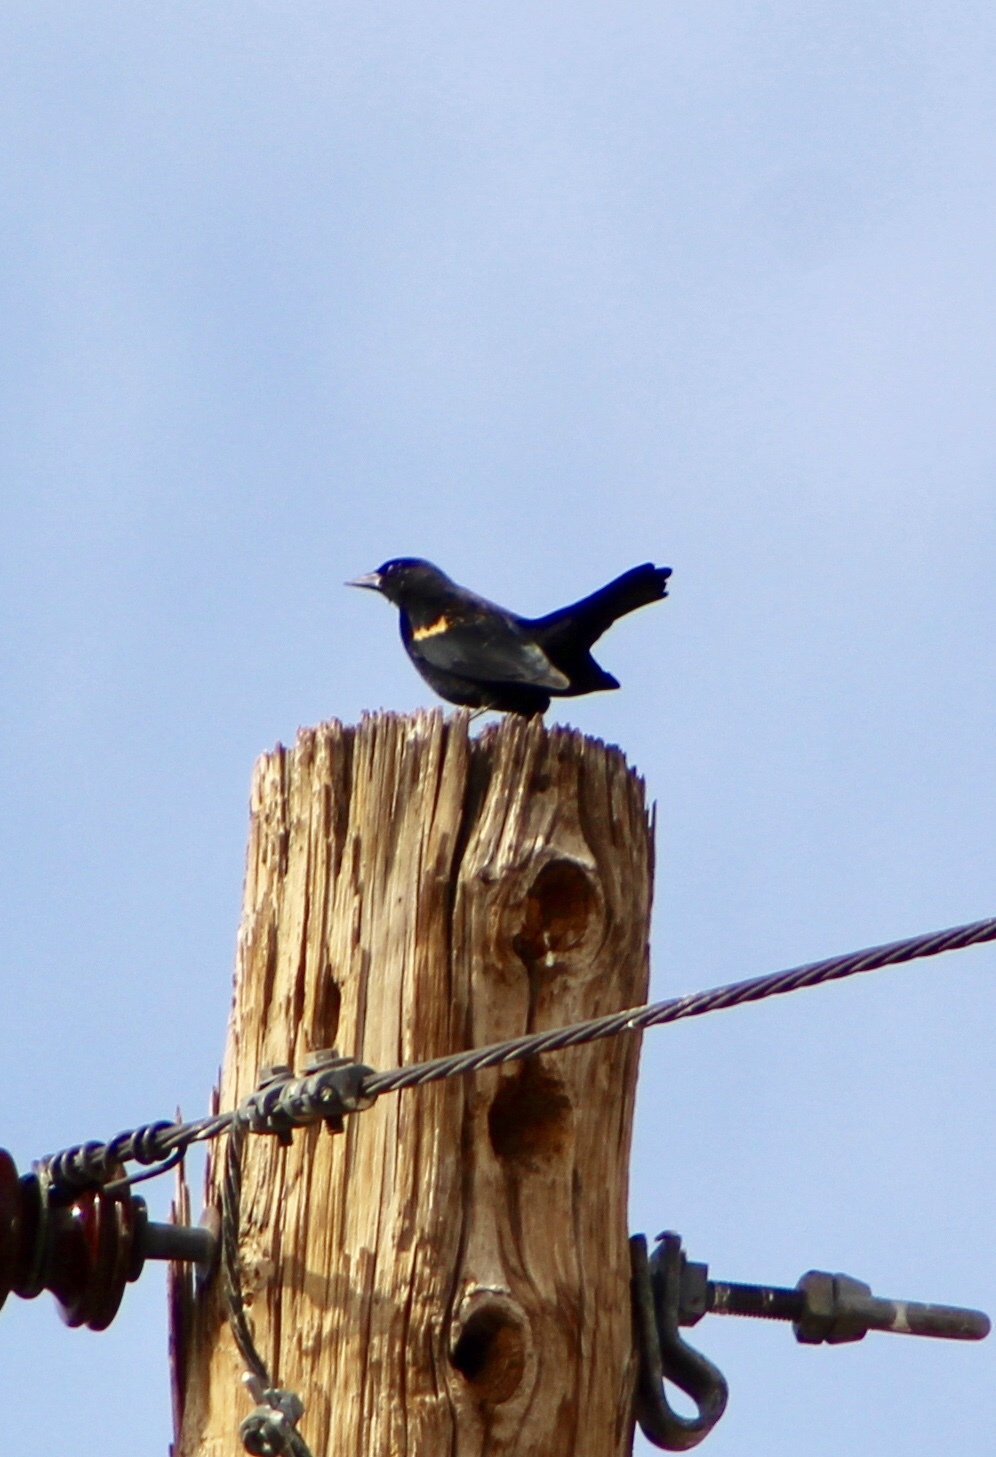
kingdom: Animalia
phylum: Chordata
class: Aves
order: Passeriformes
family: Icteridae
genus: Agelaius
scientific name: Agelaius phoeniceus
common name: Red-winged blackbird
